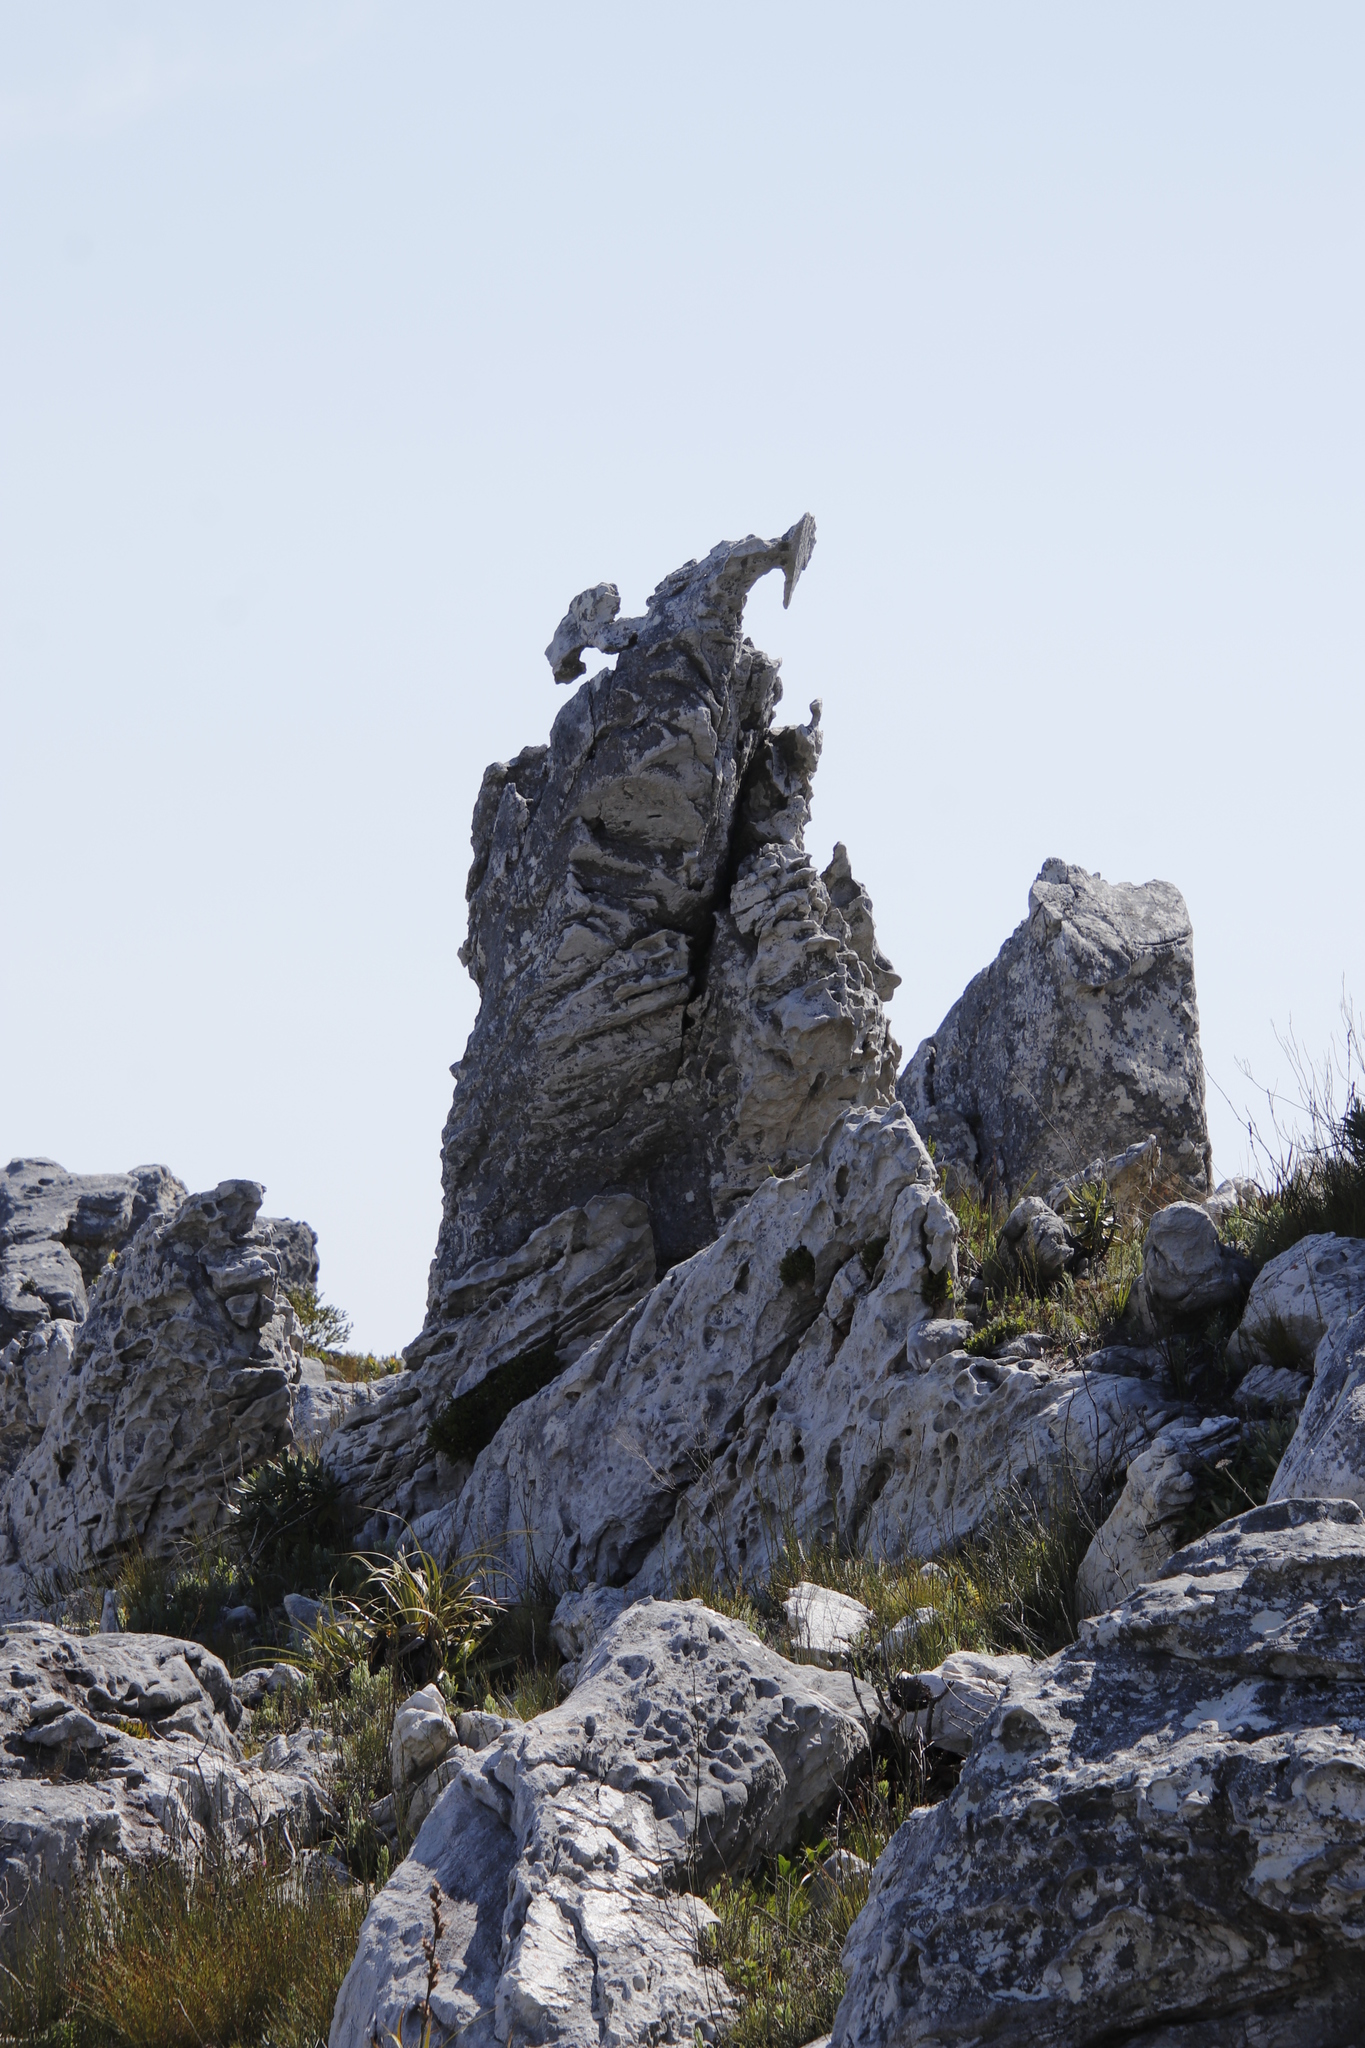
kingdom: Plantae
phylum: Tracheophyta
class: Liliopsida
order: Poales
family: Cyperaceae
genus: Tetraria
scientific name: Tetraria thermalis
